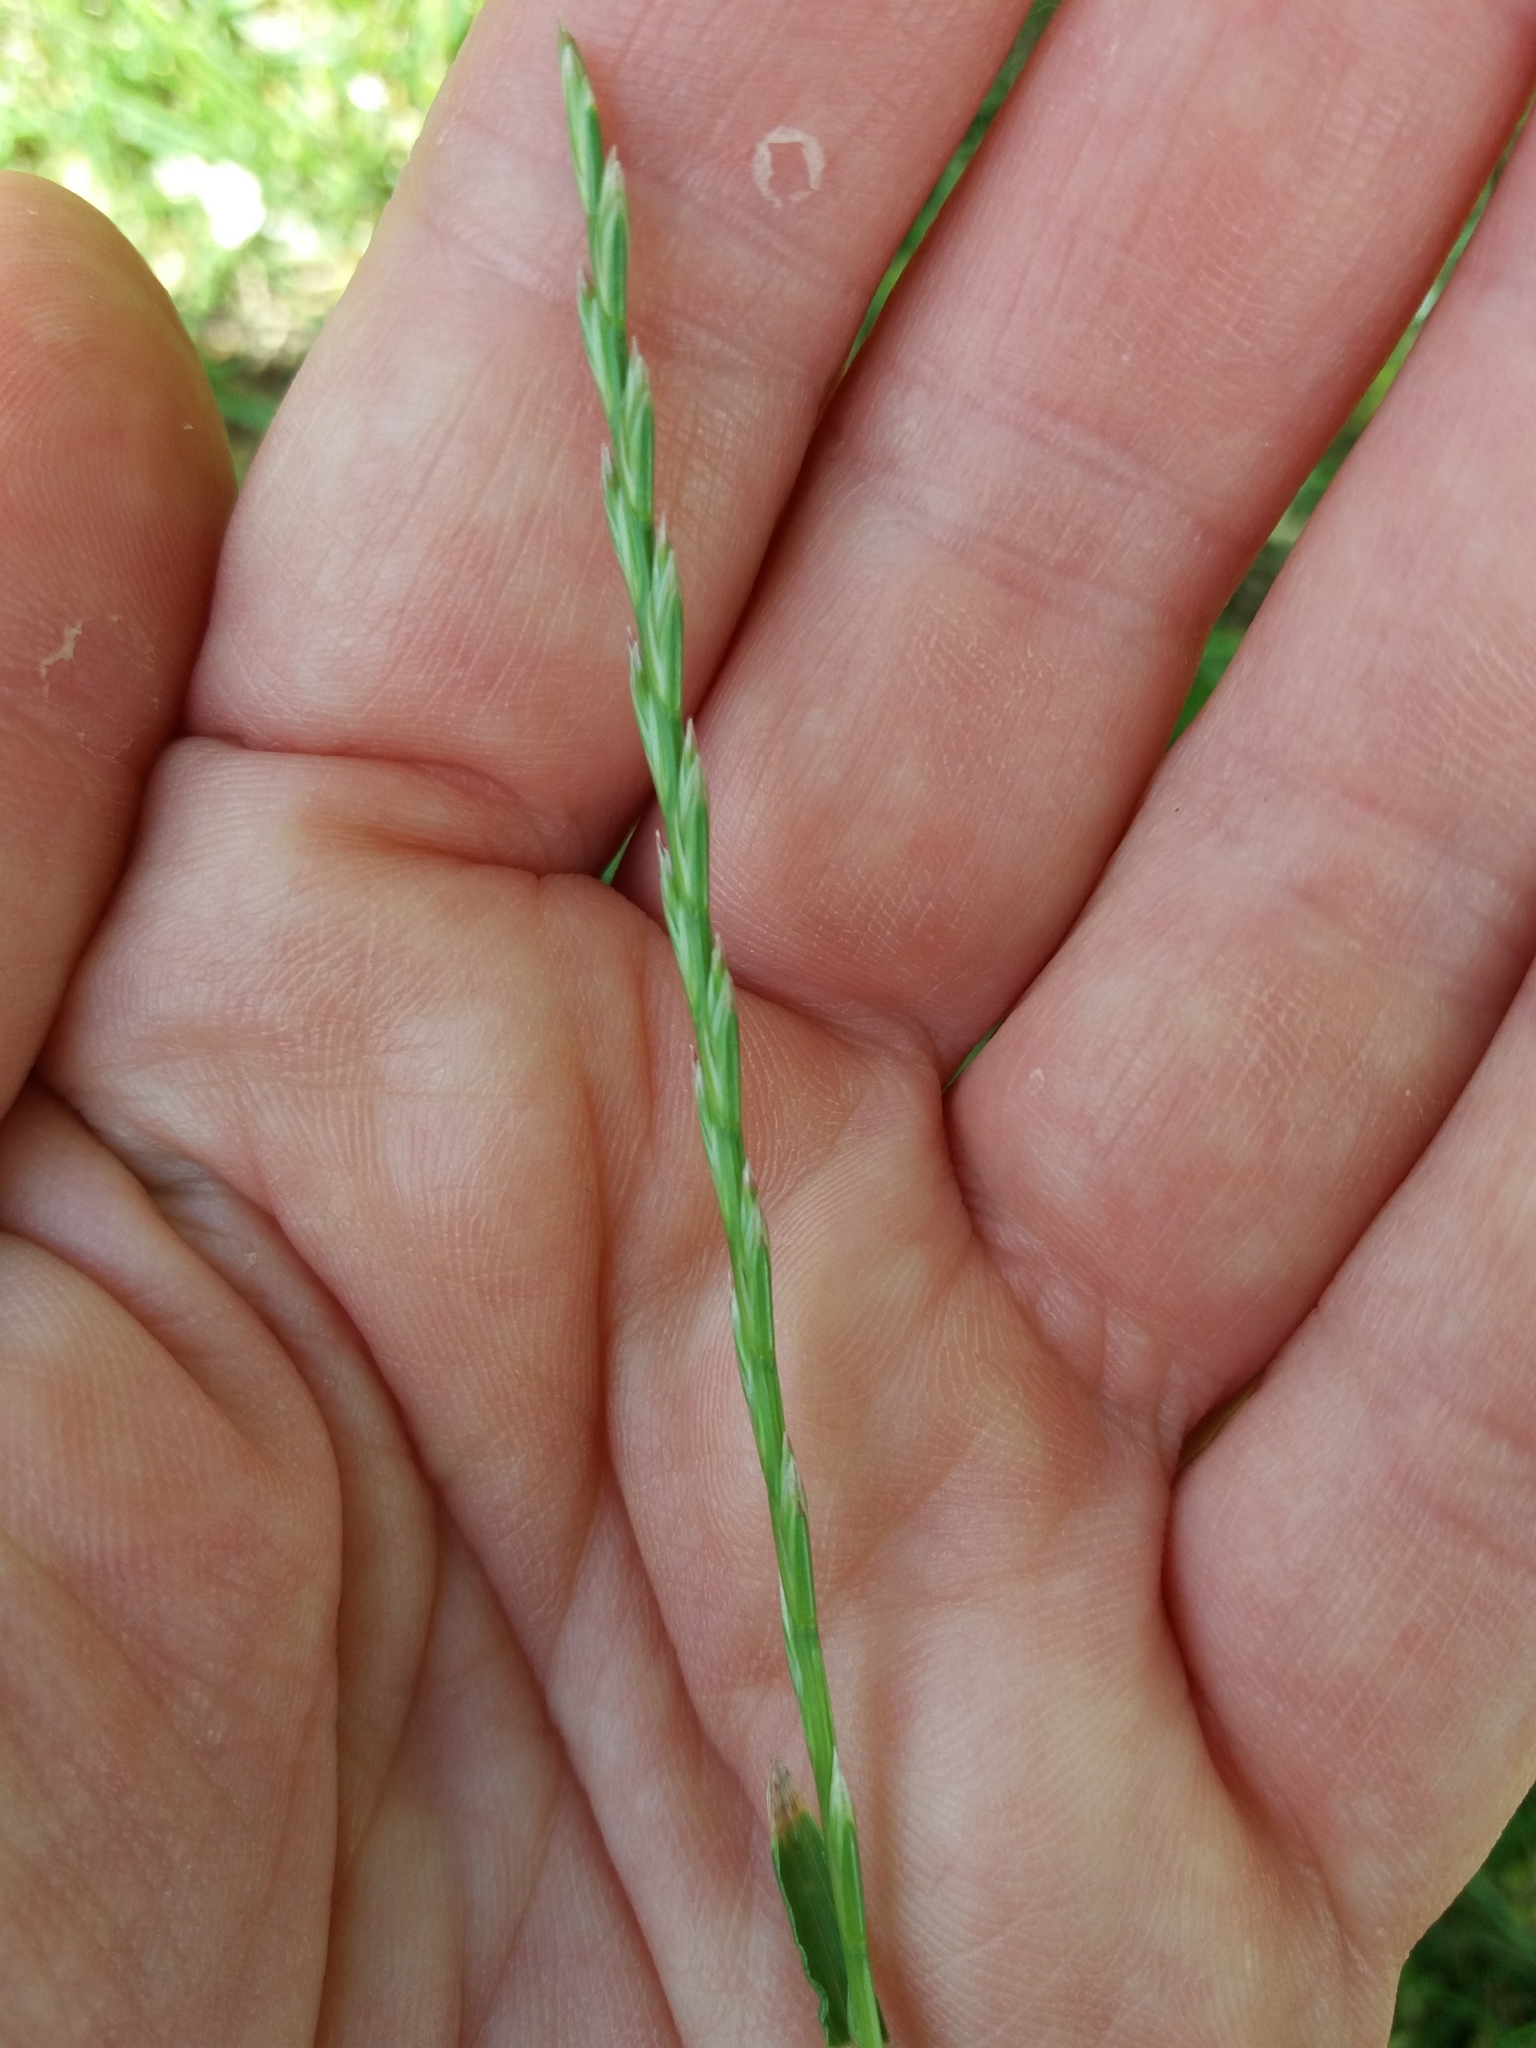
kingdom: Plantae
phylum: Tracheophyta
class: Liliopsida
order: Poales
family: Poaceae
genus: Lolium
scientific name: Lolium perenne
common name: Perennial ryegrass
